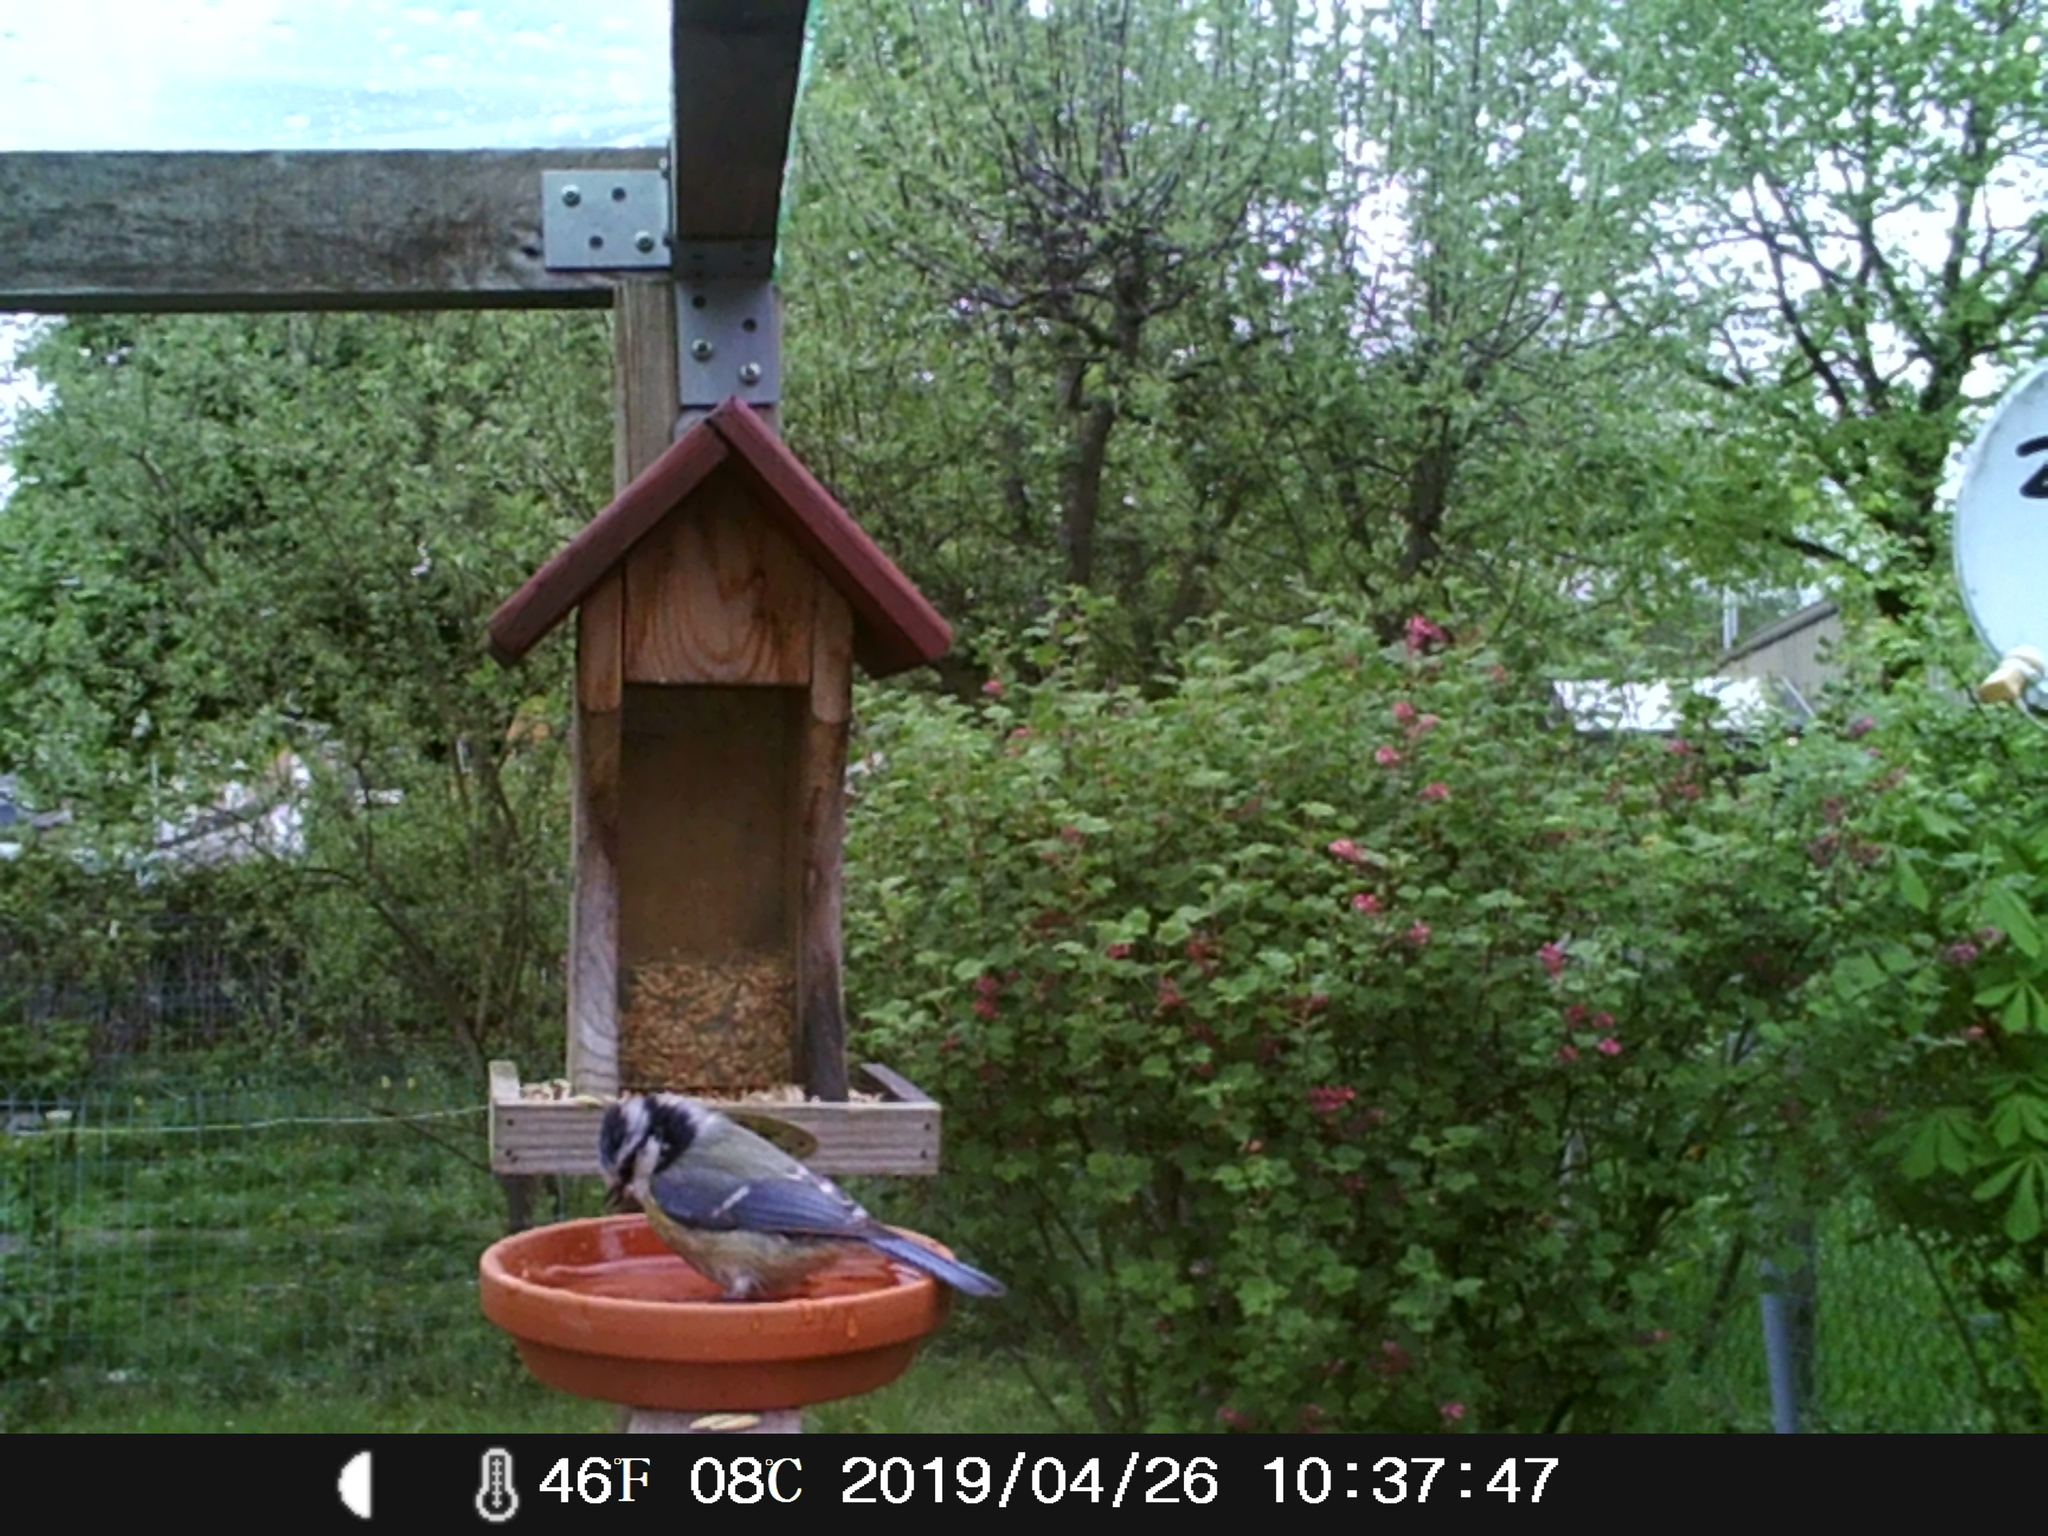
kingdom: Animalia
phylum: Chordata
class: Aves
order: Passeriformes
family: Paridae
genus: Cyanistes
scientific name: Cyanistes caeruleus
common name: Eurasian blue tit
